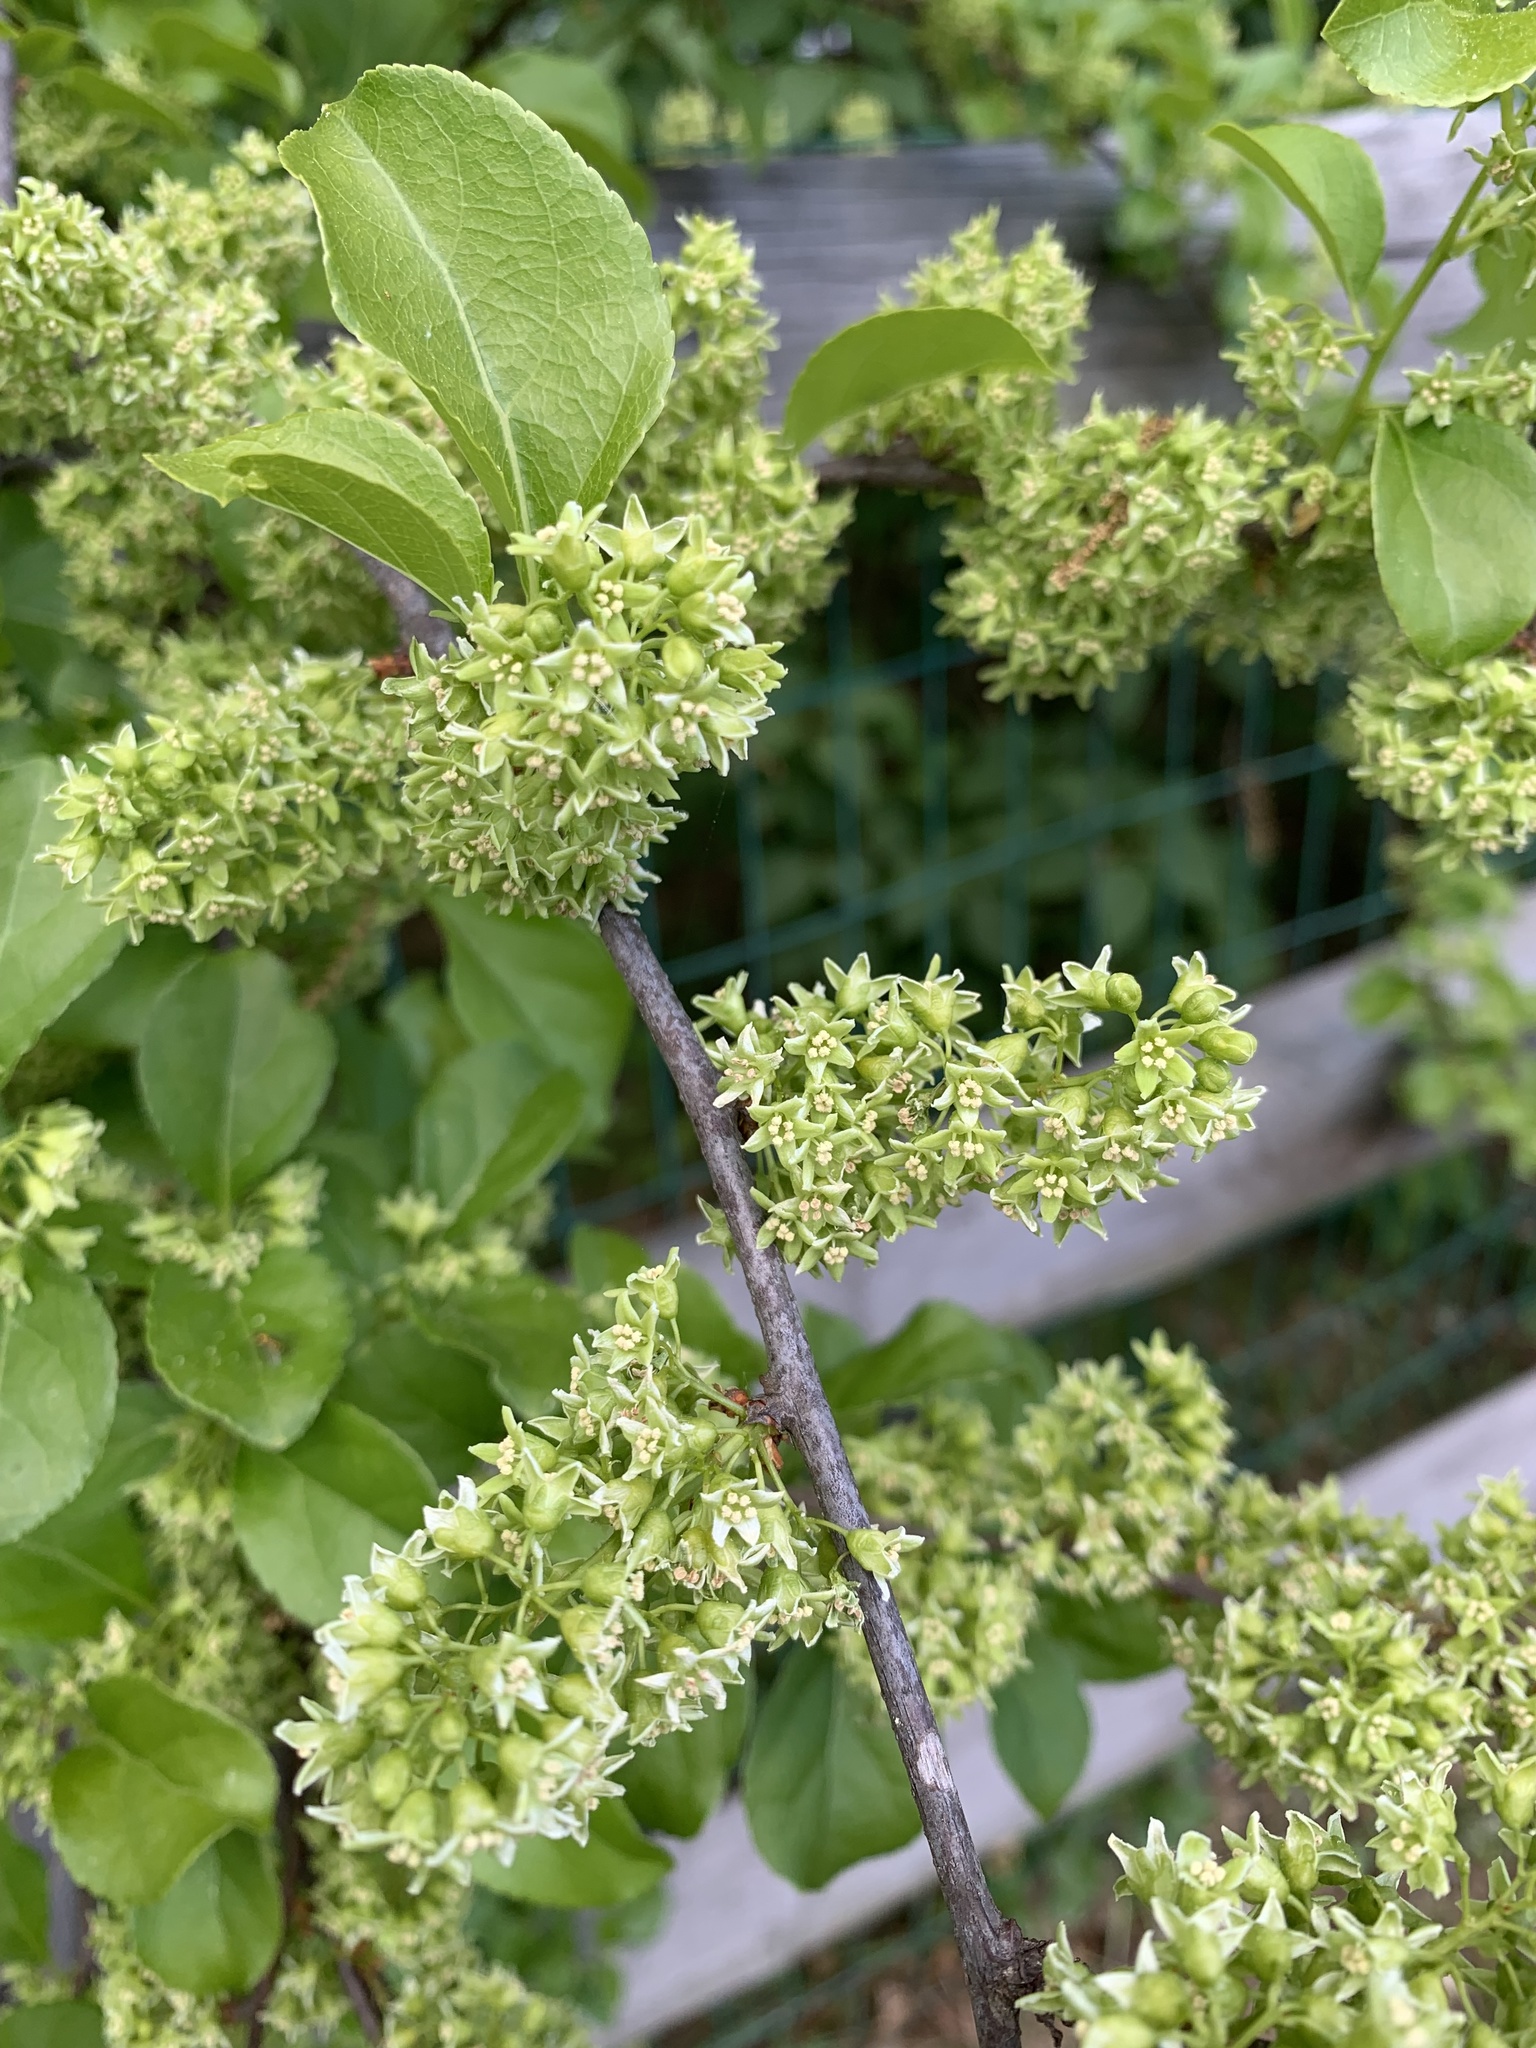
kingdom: Plantae
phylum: Tracheophyta
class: Magnoliopsida
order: Celastrales
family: Celastraceae
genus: Celastrus
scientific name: Celastrus orbiculatus
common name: Oriental bittersweet
